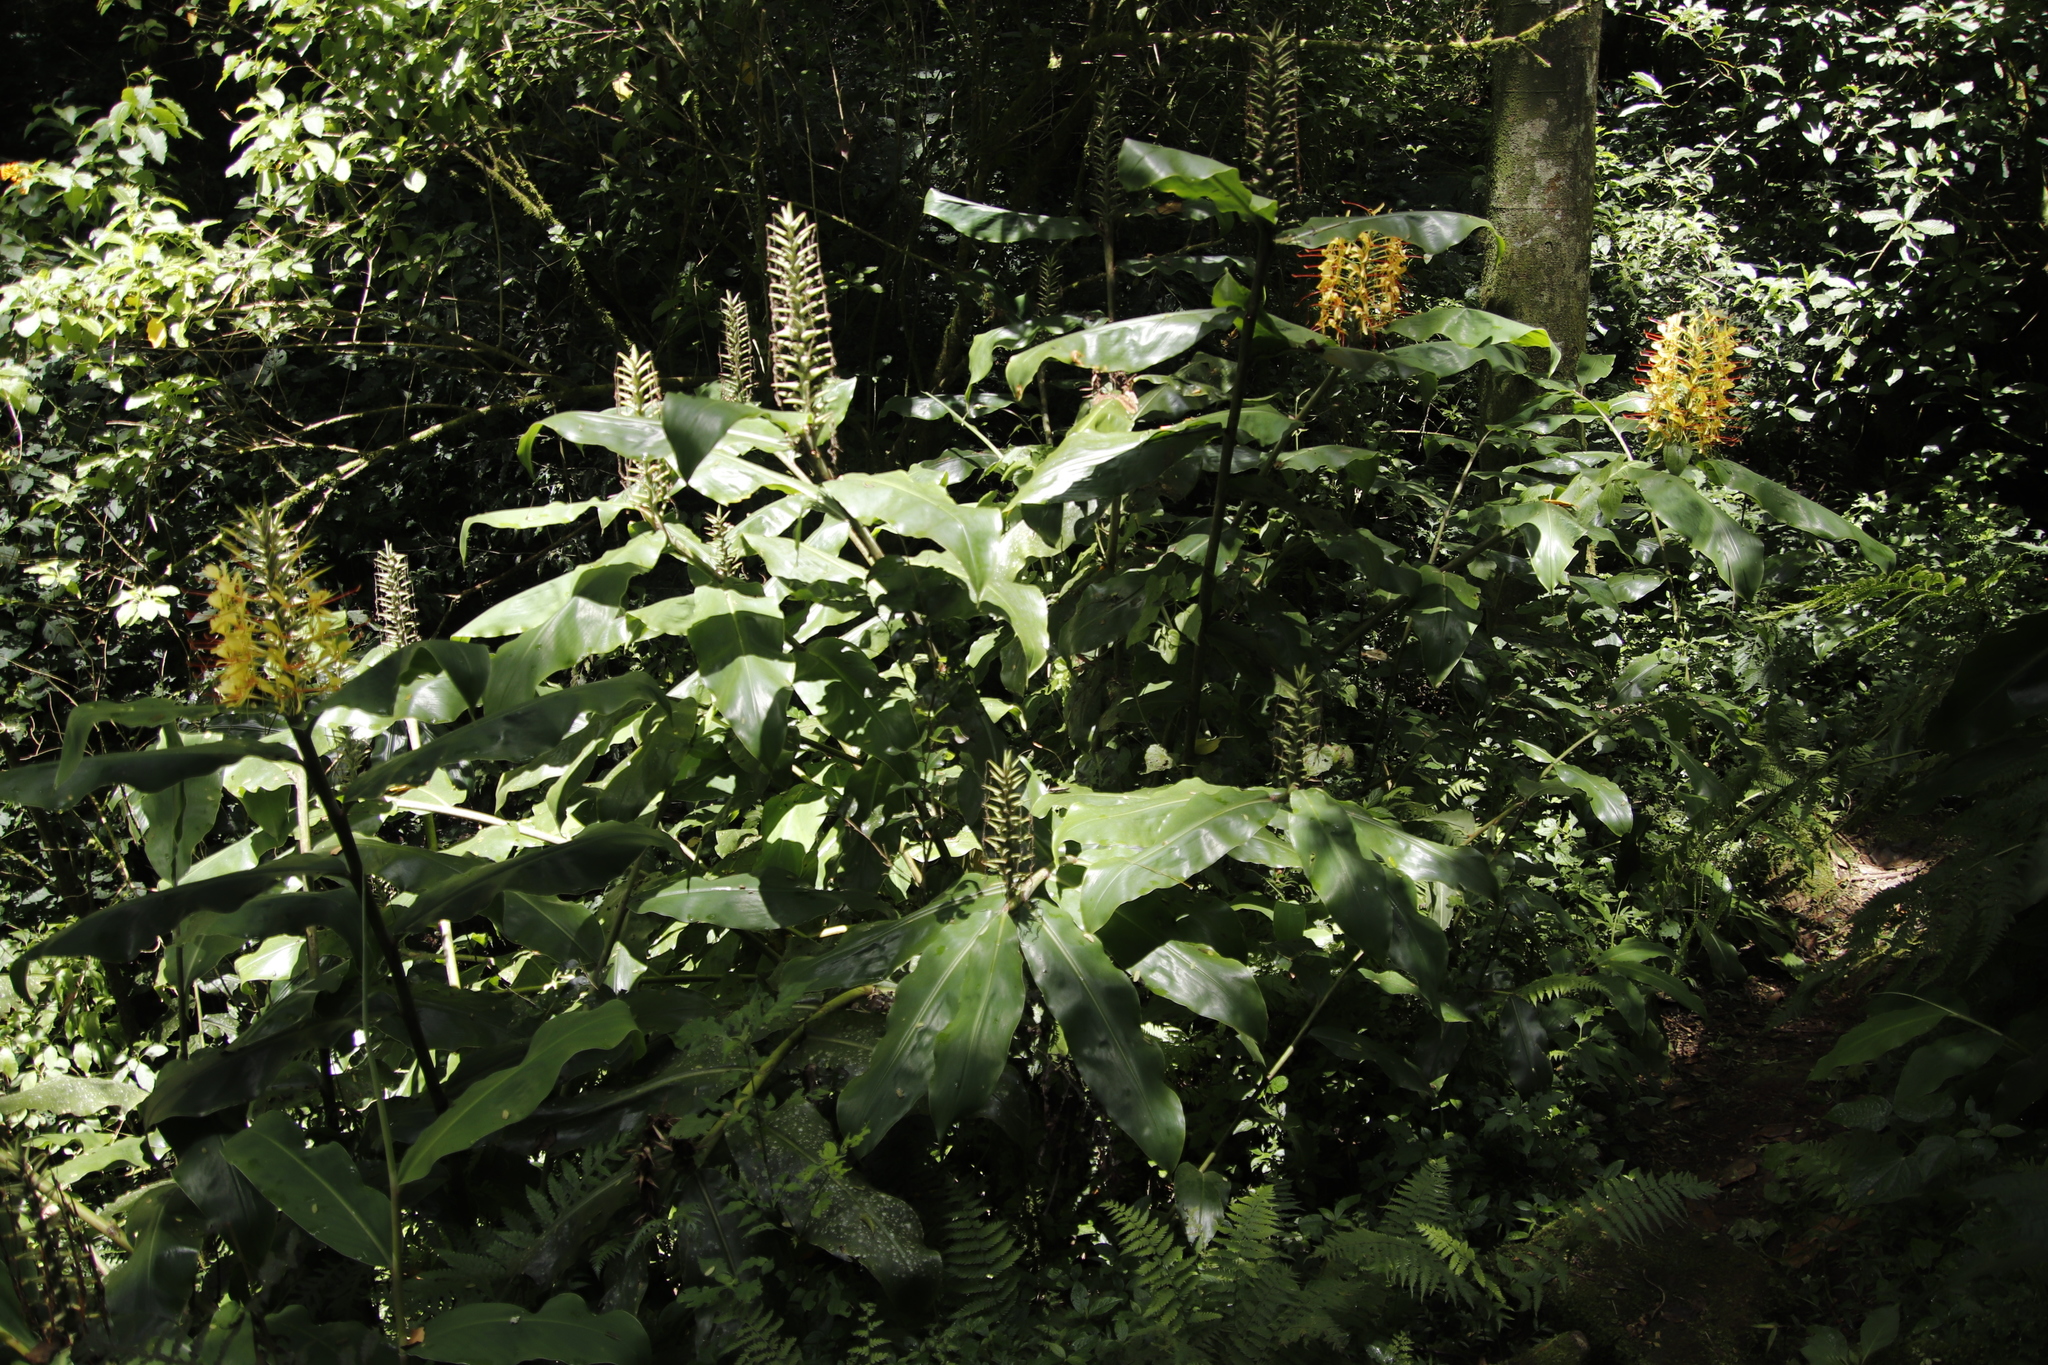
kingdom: Plantae
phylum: Tracheophyta
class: Liliopsida
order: Zingiberales
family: Zingiberaceae
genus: Hedychium
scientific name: Hedychium gardnerianum
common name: Himalayan ginger
